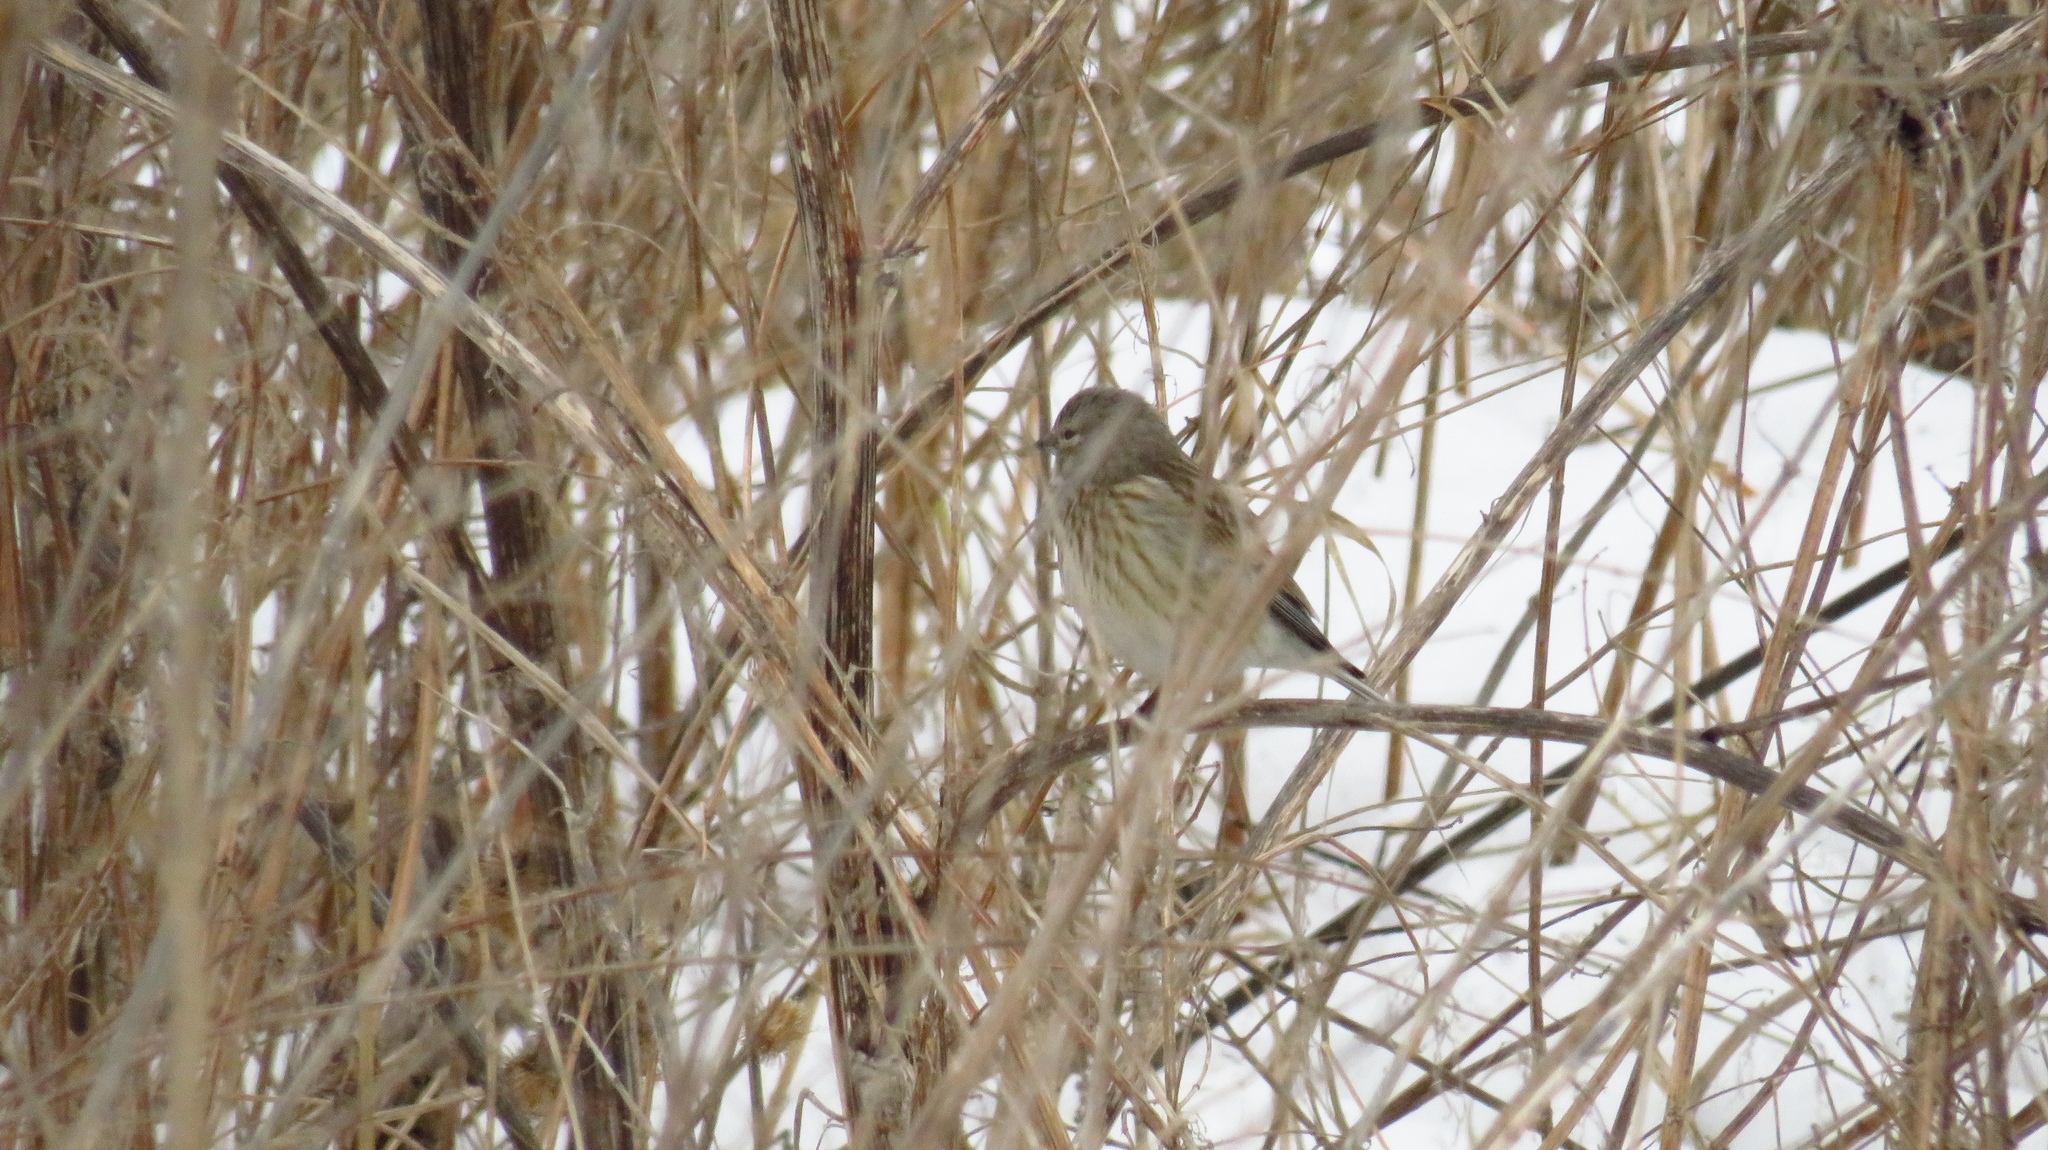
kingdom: Animalia
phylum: Chordata
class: Aves
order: Passeriformes
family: Fringillidae
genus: Linaria
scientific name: Linaria cannabina
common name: Common linnet
